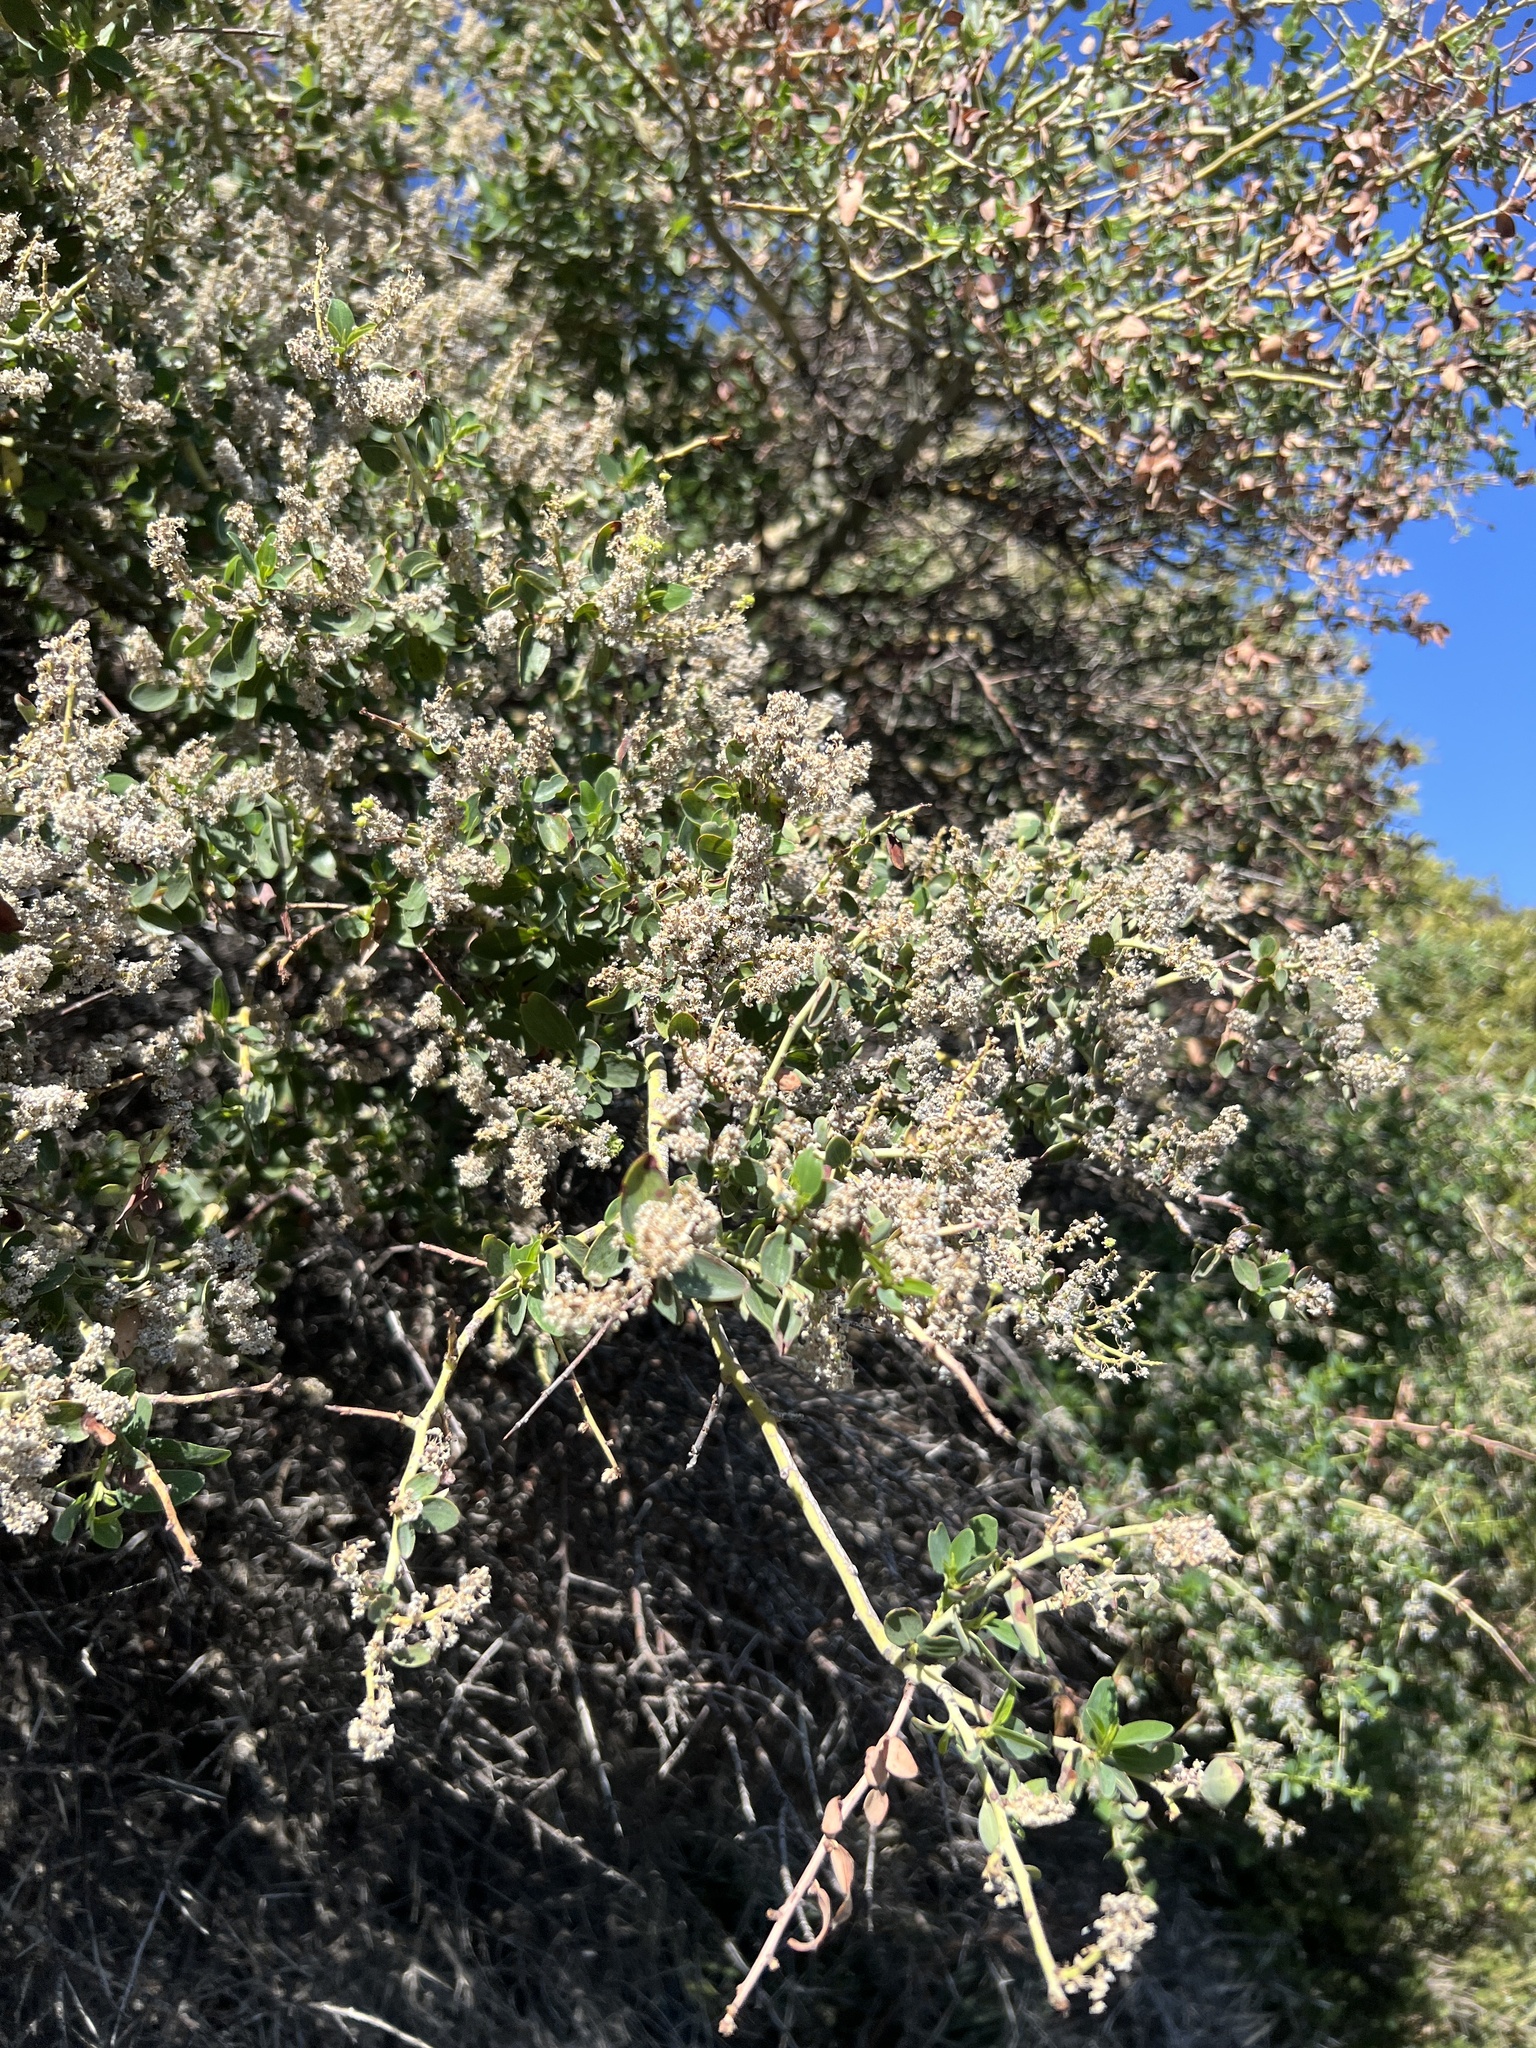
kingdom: Plantae
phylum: Tracheophyta
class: Magnoliopsida
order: Rosales
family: Rhamnaceae
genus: Ceanothus
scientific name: Ceanothus leucodermis
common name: Chaparral whitethorn
